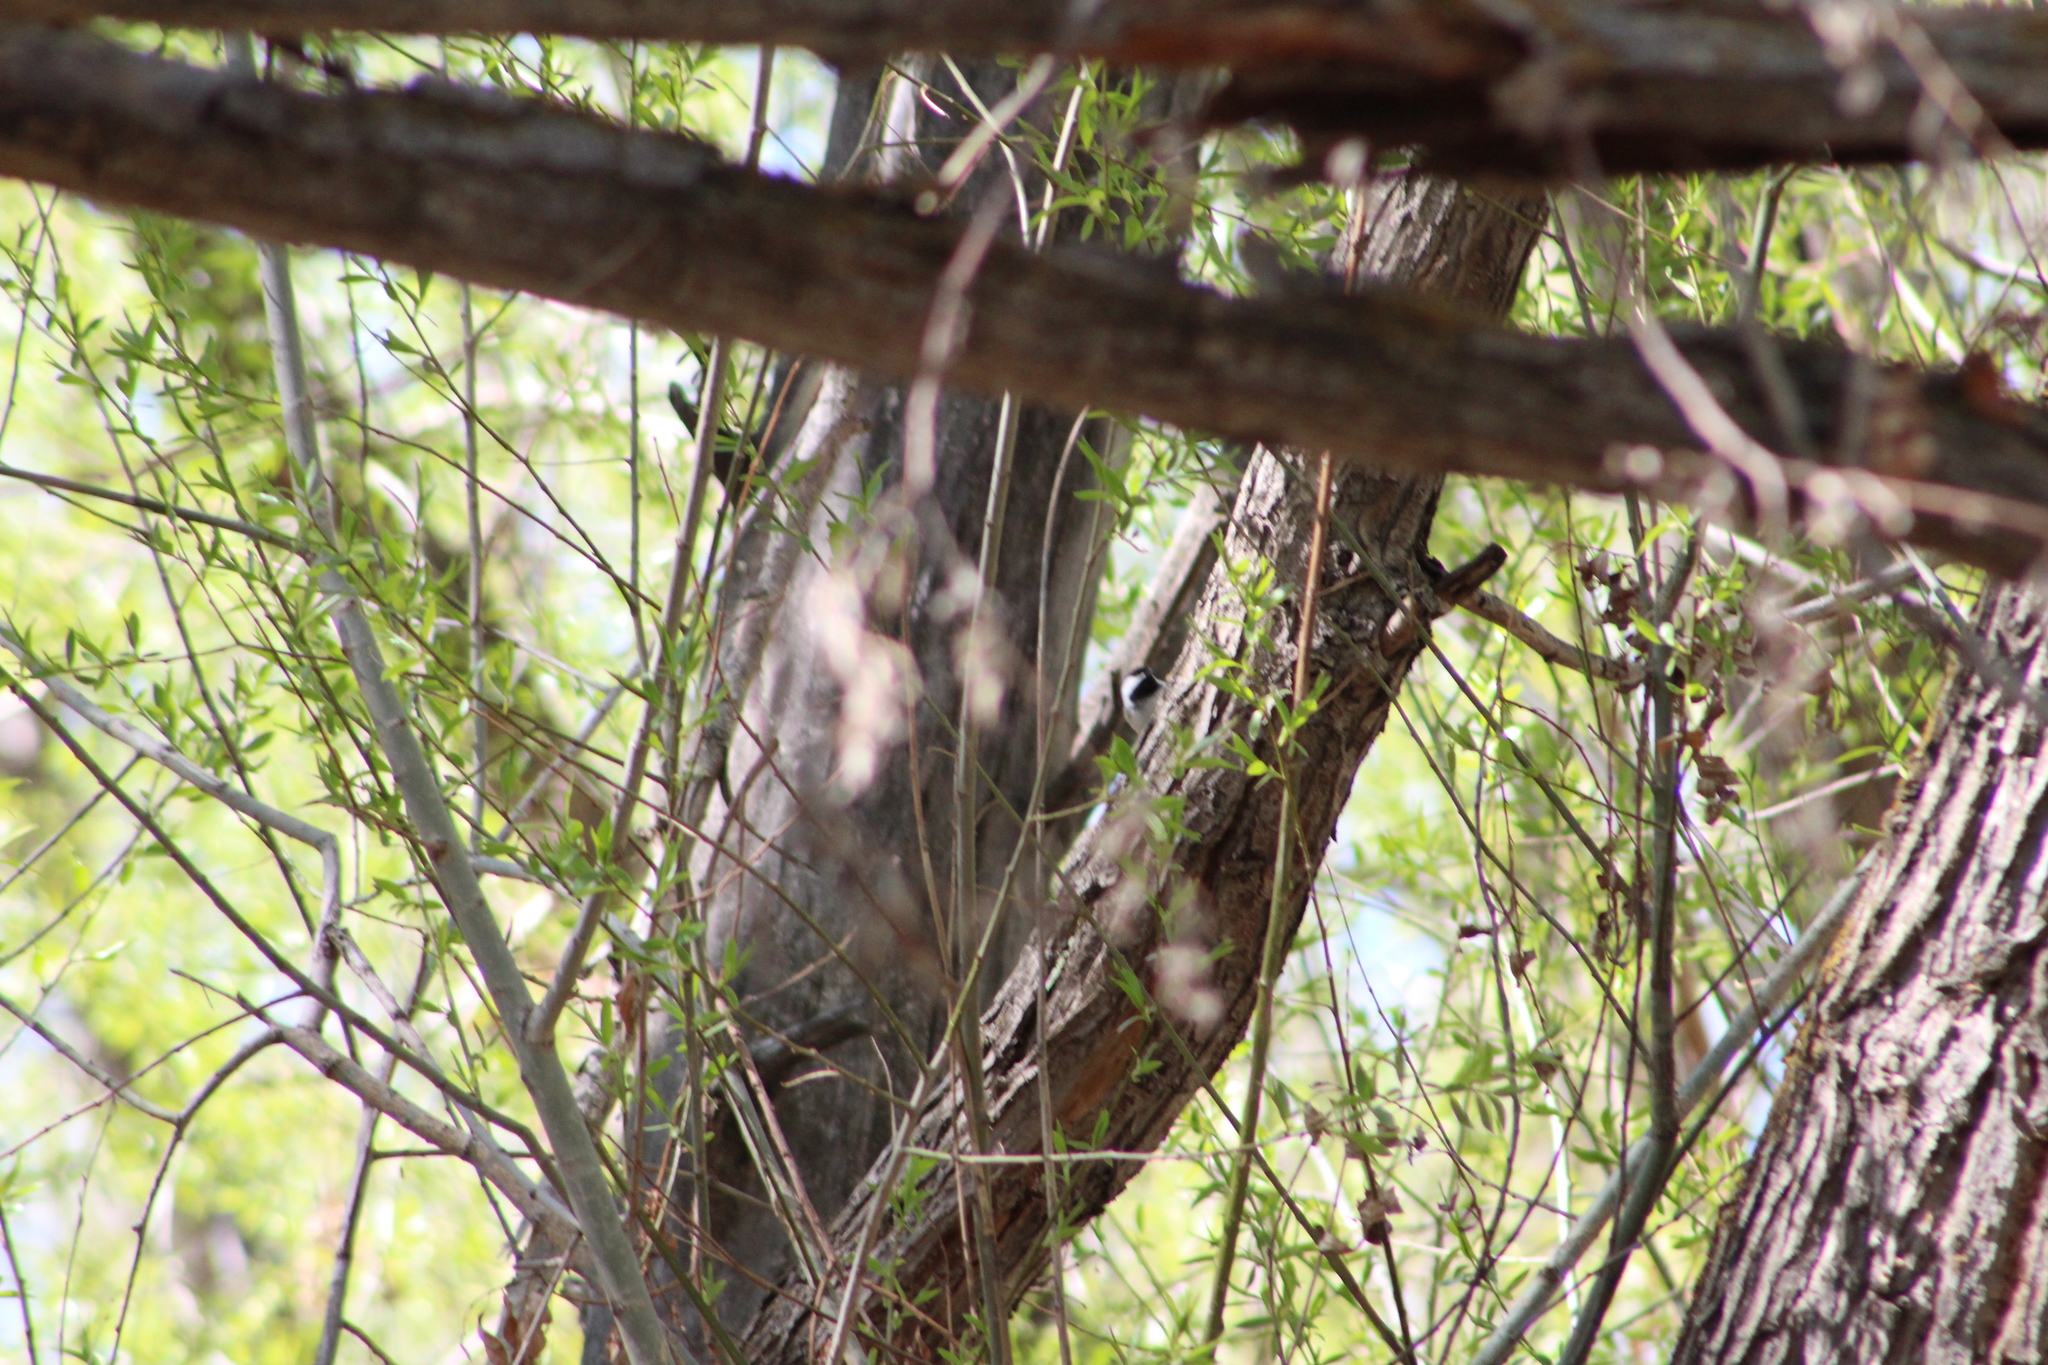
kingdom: Animalia
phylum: Chordata
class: Aves
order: Passeriformes
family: Paridae
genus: Poecile
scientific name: Poecile atricapillus
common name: Black-capped chickadee
